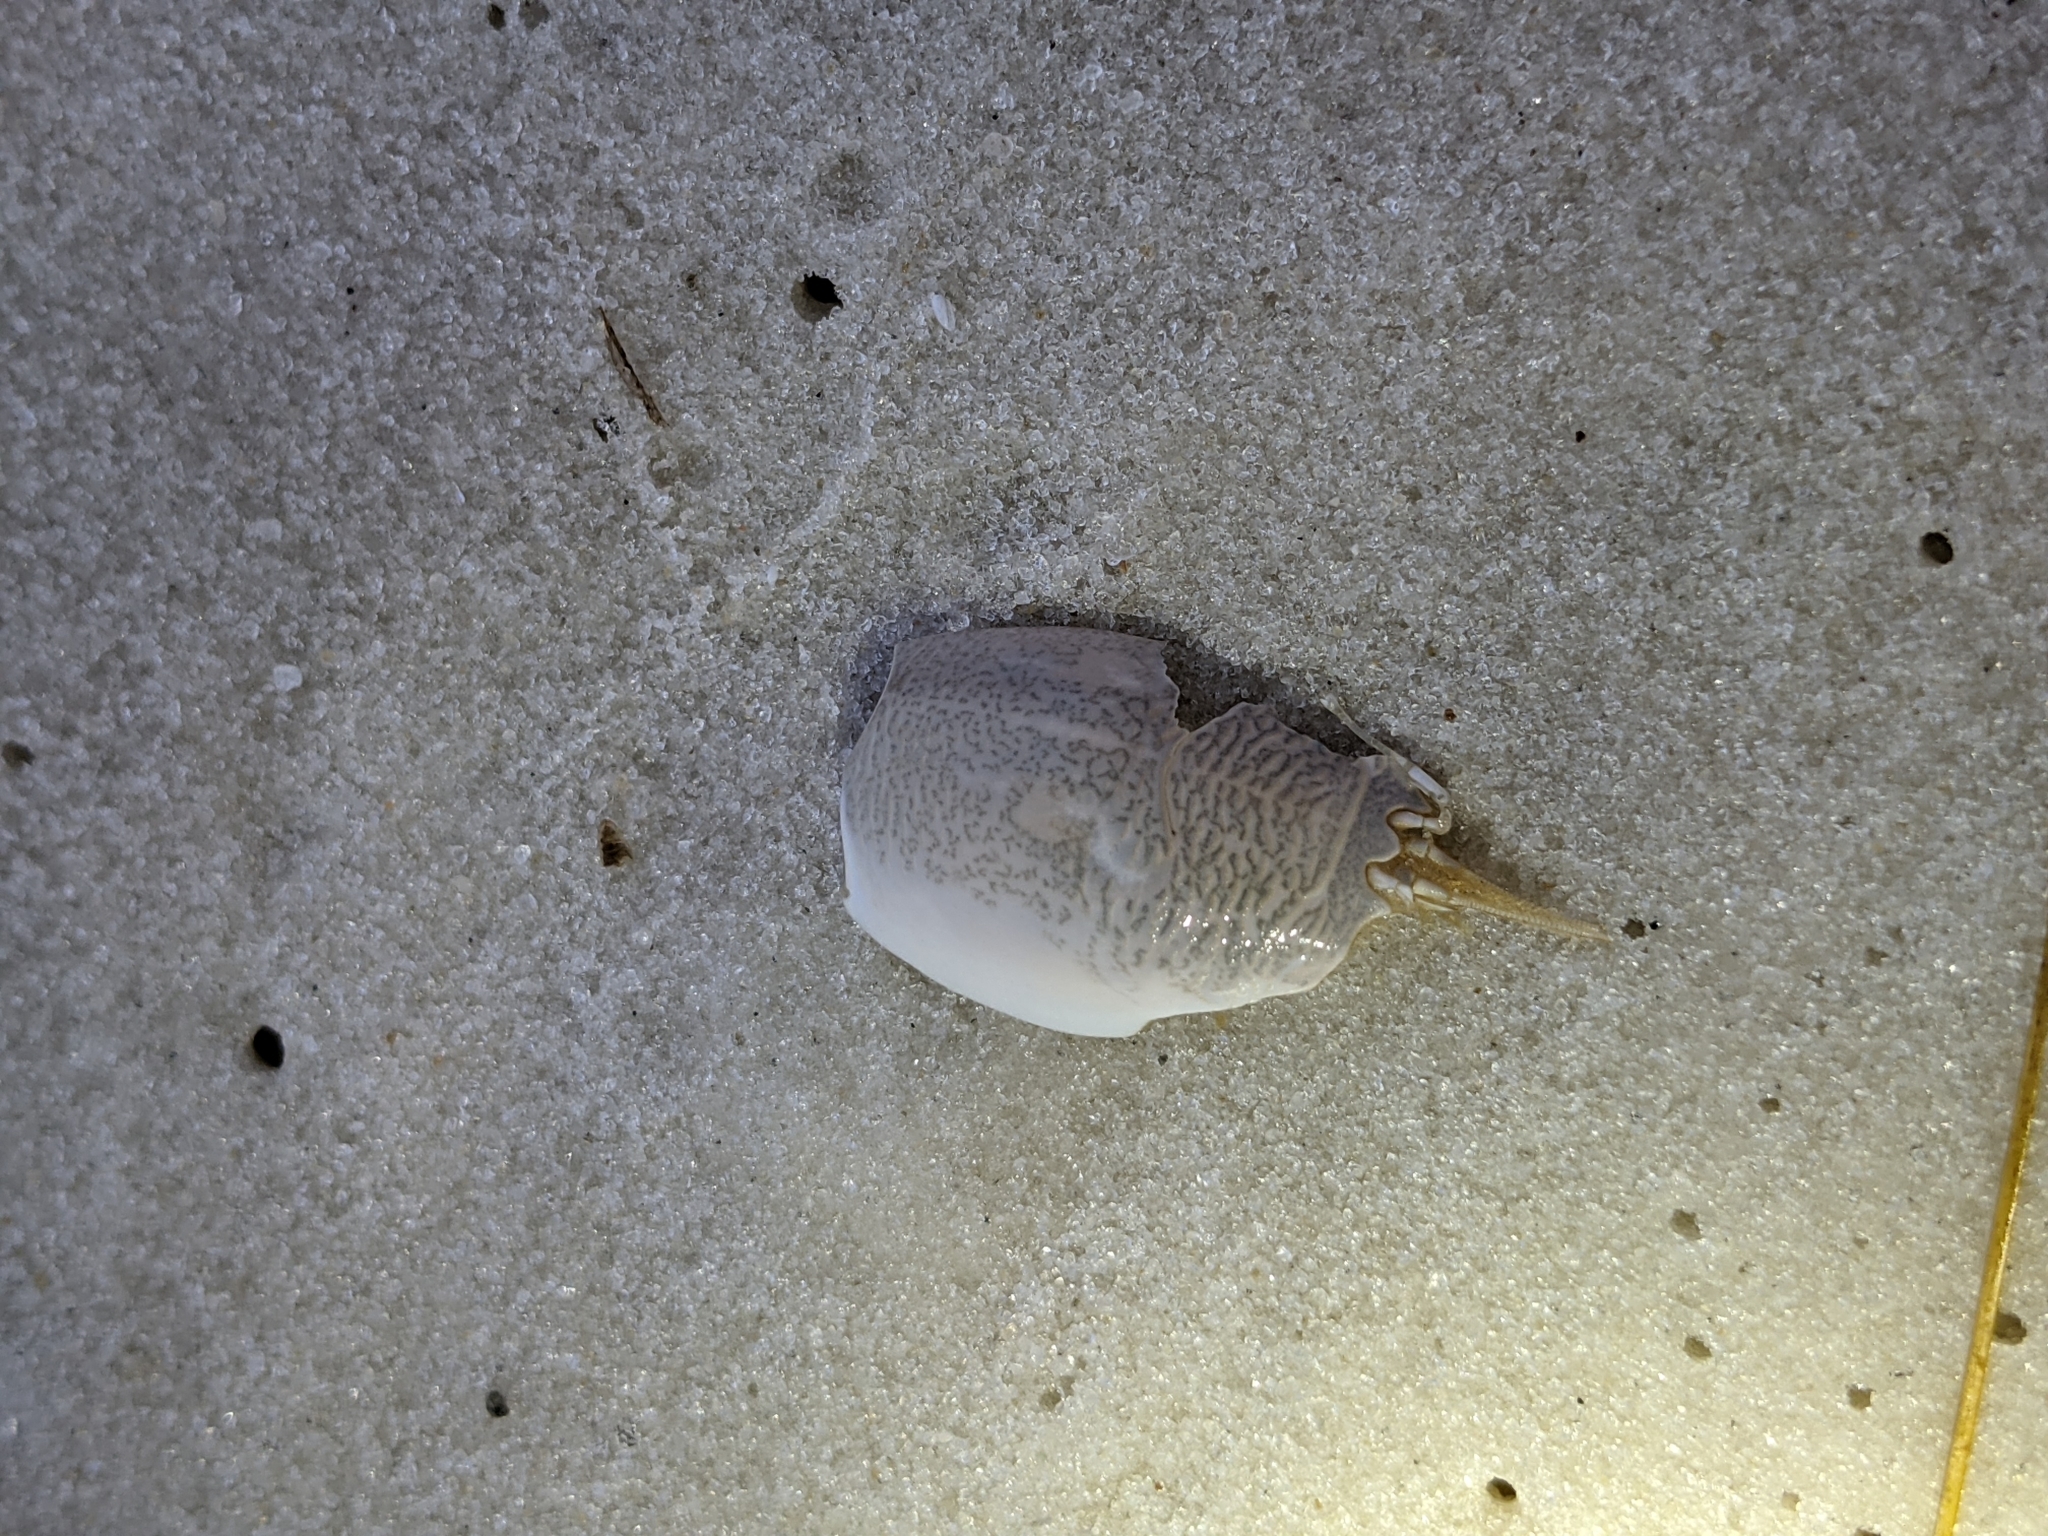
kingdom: Animalia
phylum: Arthropoda
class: Malacostraca
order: Decapoda
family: Hippidae
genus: Emerita
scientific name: Emerita talpoida
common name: Atlantic sand crab
